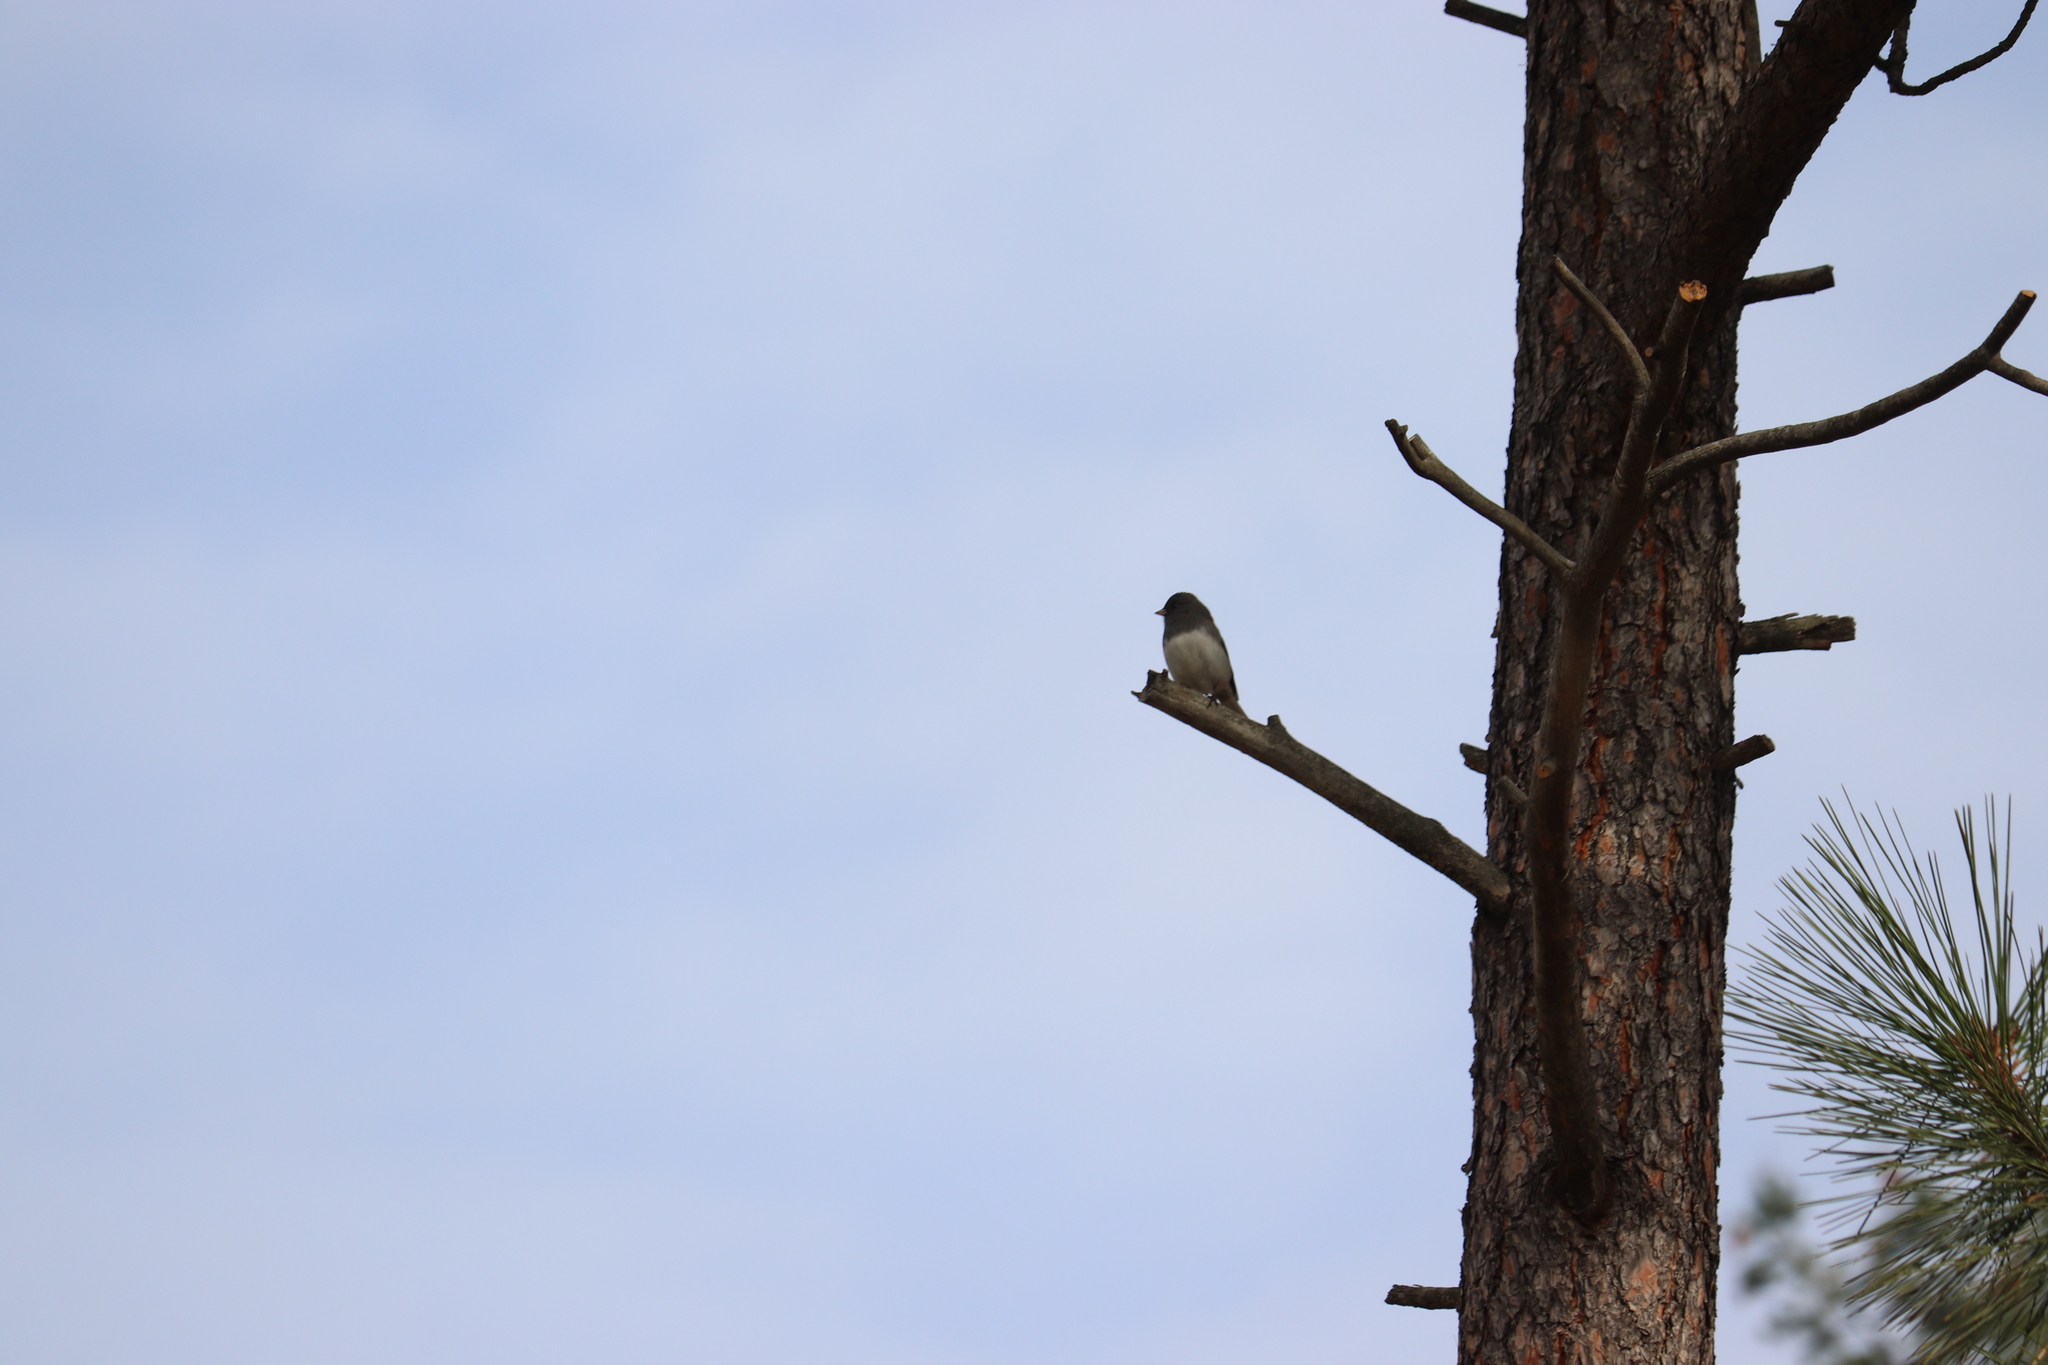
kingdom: Animalia
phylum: Chordata
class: Aves
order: Passeriformes
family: Passerellidae
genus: Junco
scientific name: Junco hyemalis
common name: Dark-eyed junco
